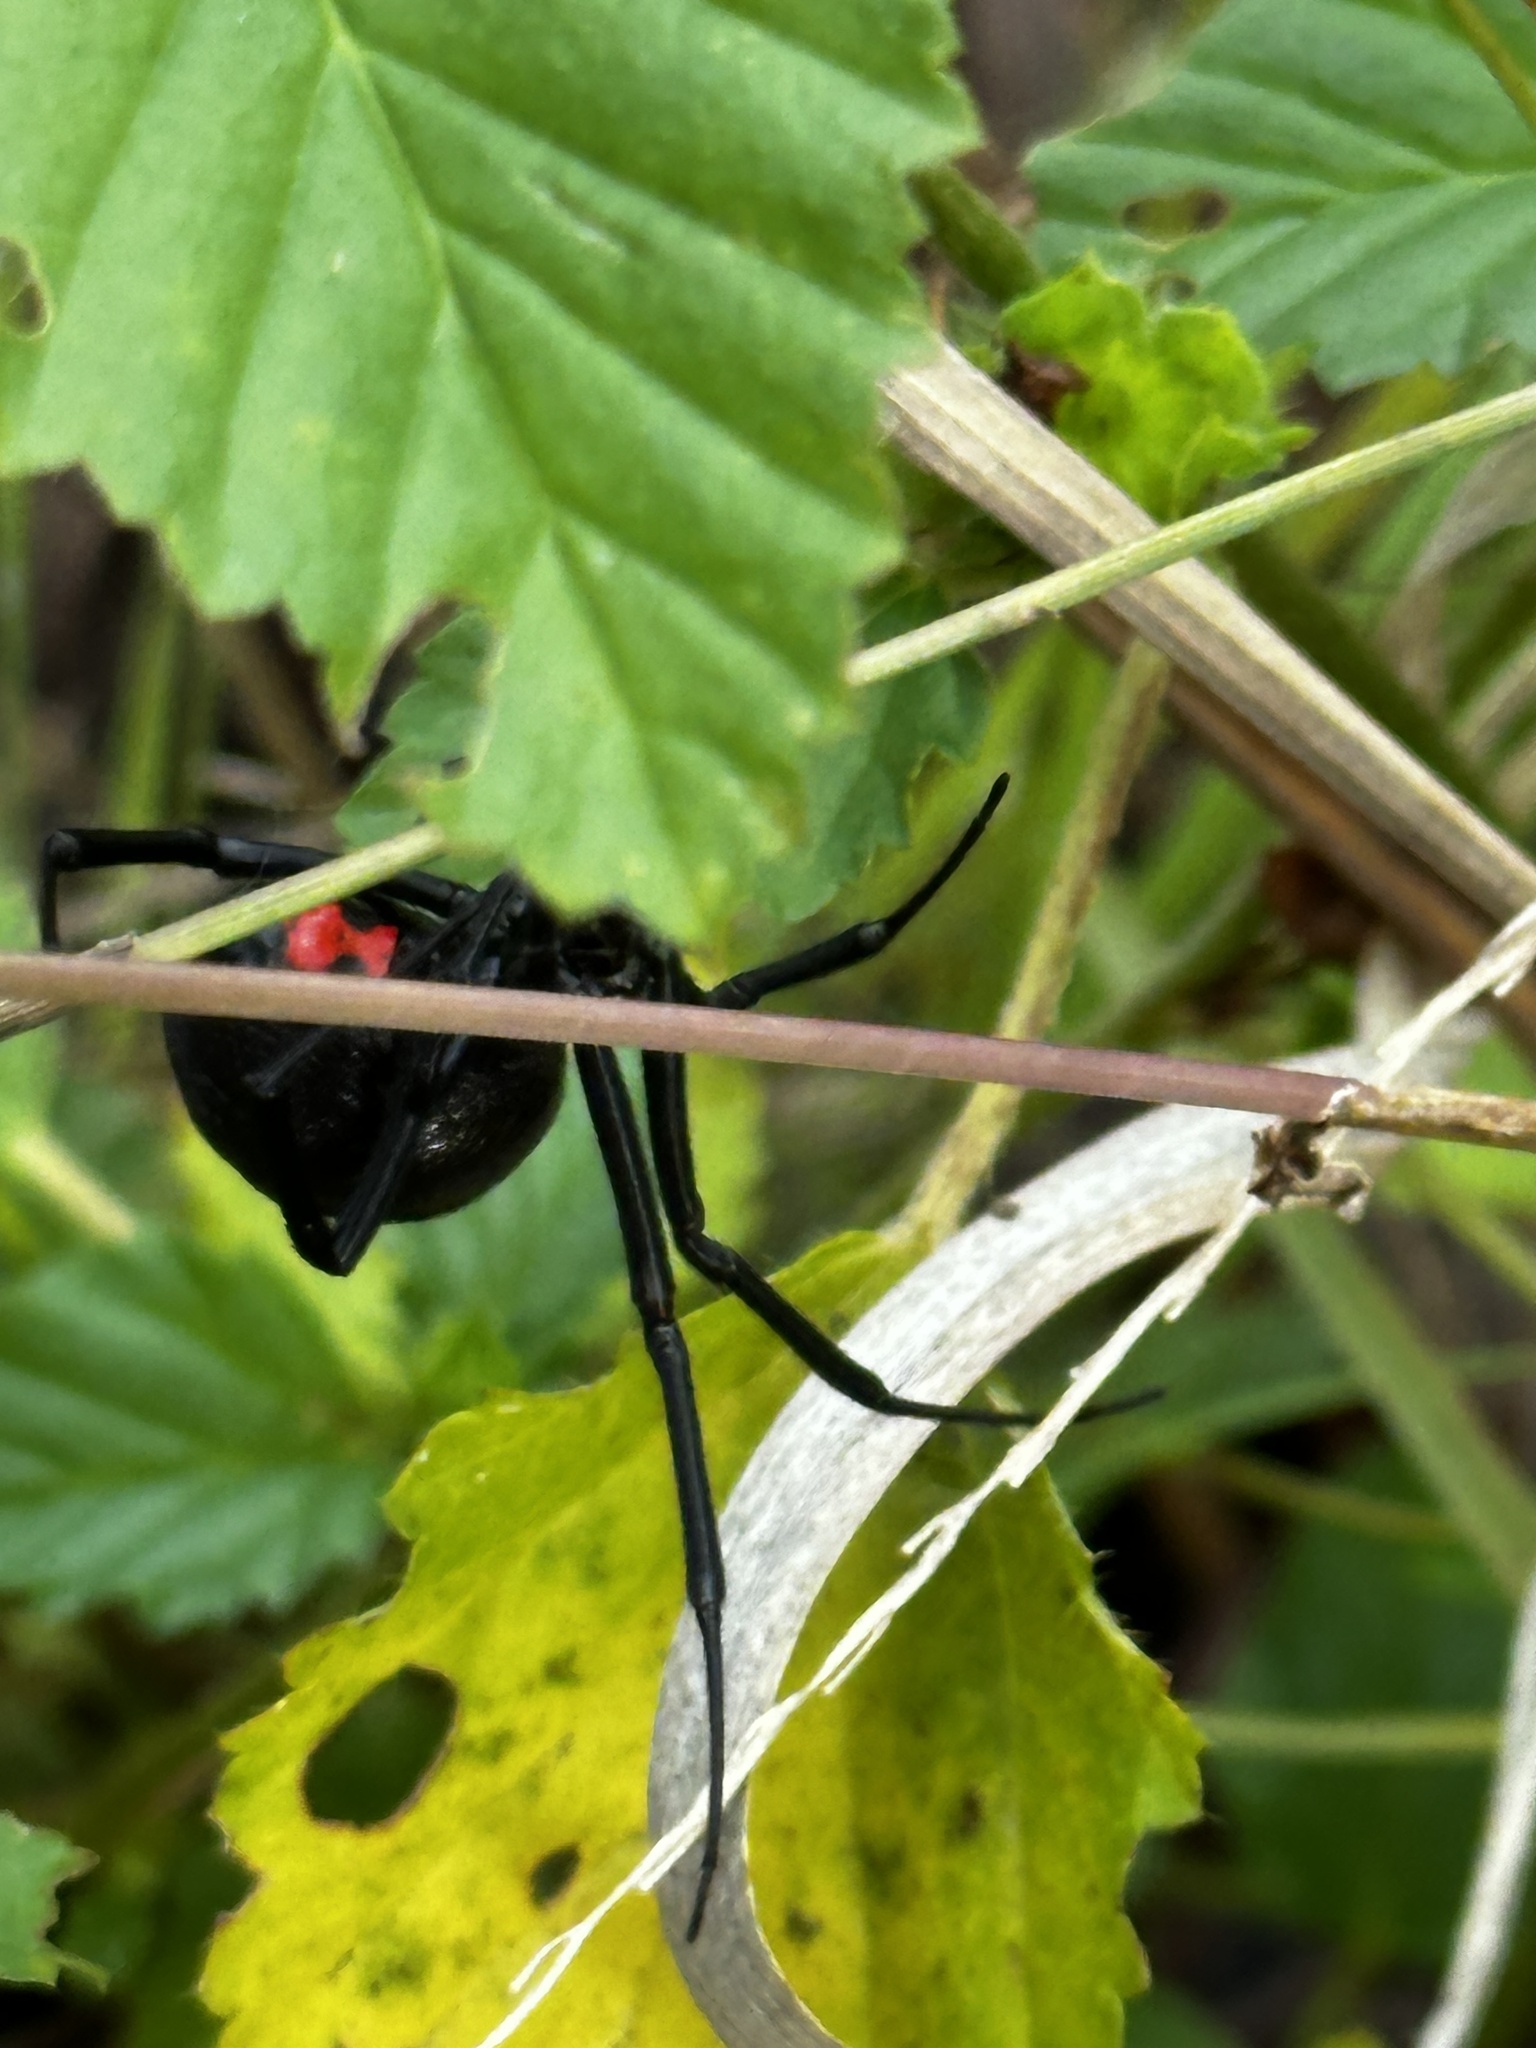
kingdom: Animalia
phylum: Arthropoda
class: Arachnida
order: Araneae
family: Theridiidae
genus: Latrodectus
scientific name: Latrodectus mactans
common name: Cobweb spiders
